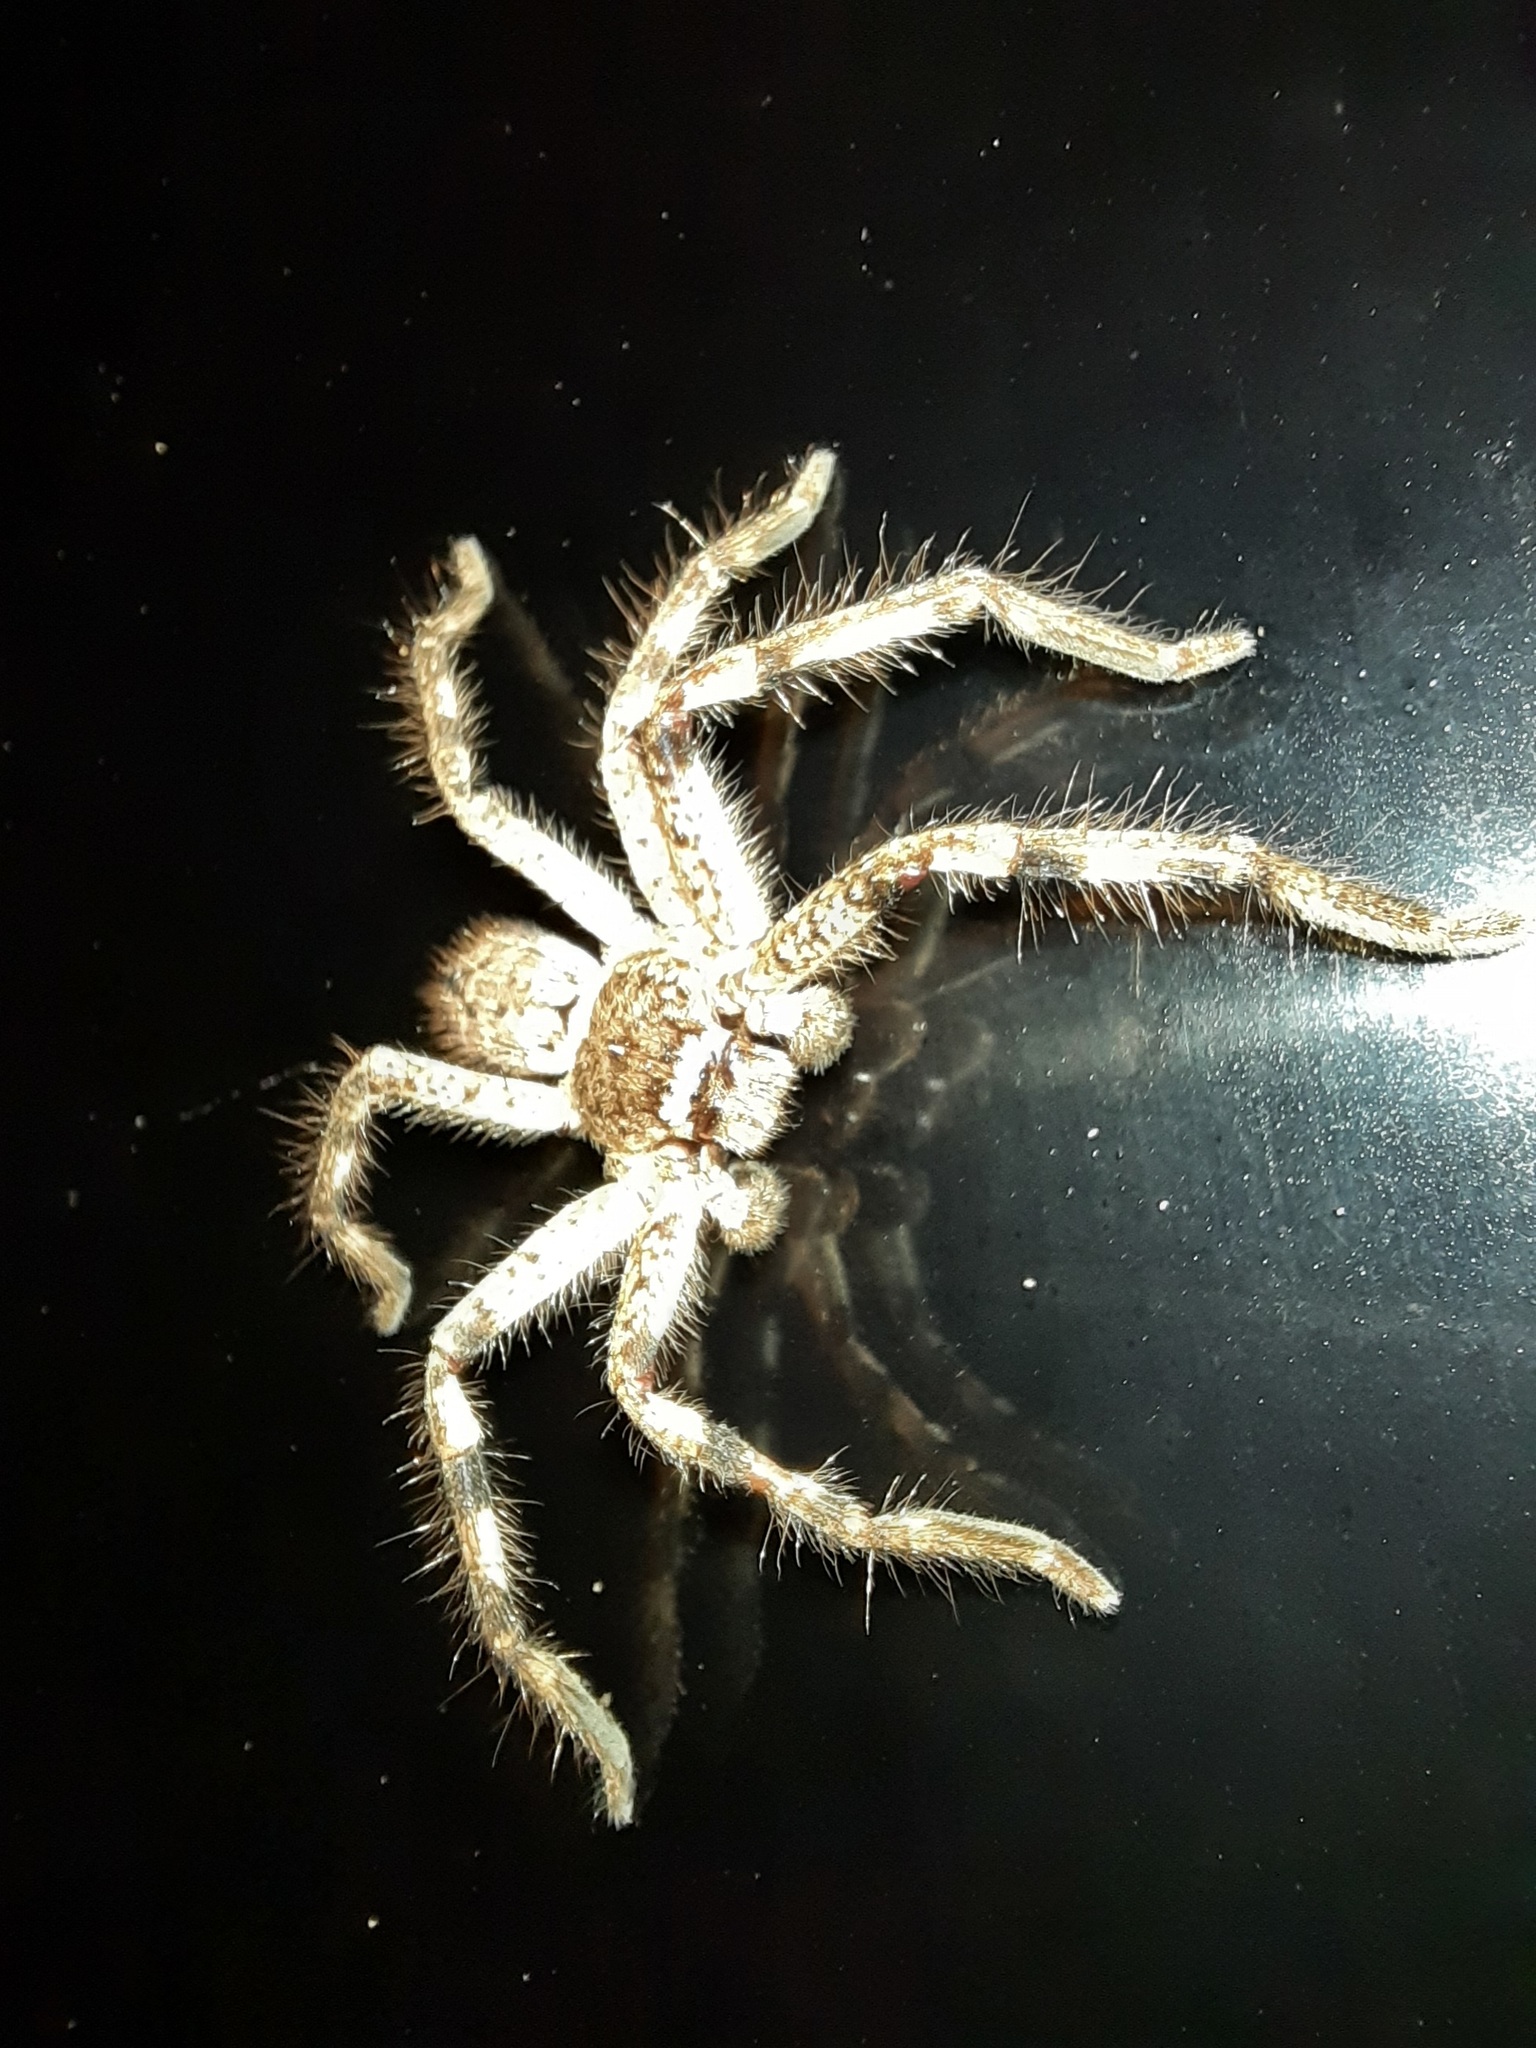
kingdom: Animalia
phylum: Arthropoda
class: Arachnida
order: Araneae
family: Sparassidae
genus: Isopedella
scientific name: Isopedella victorialis
